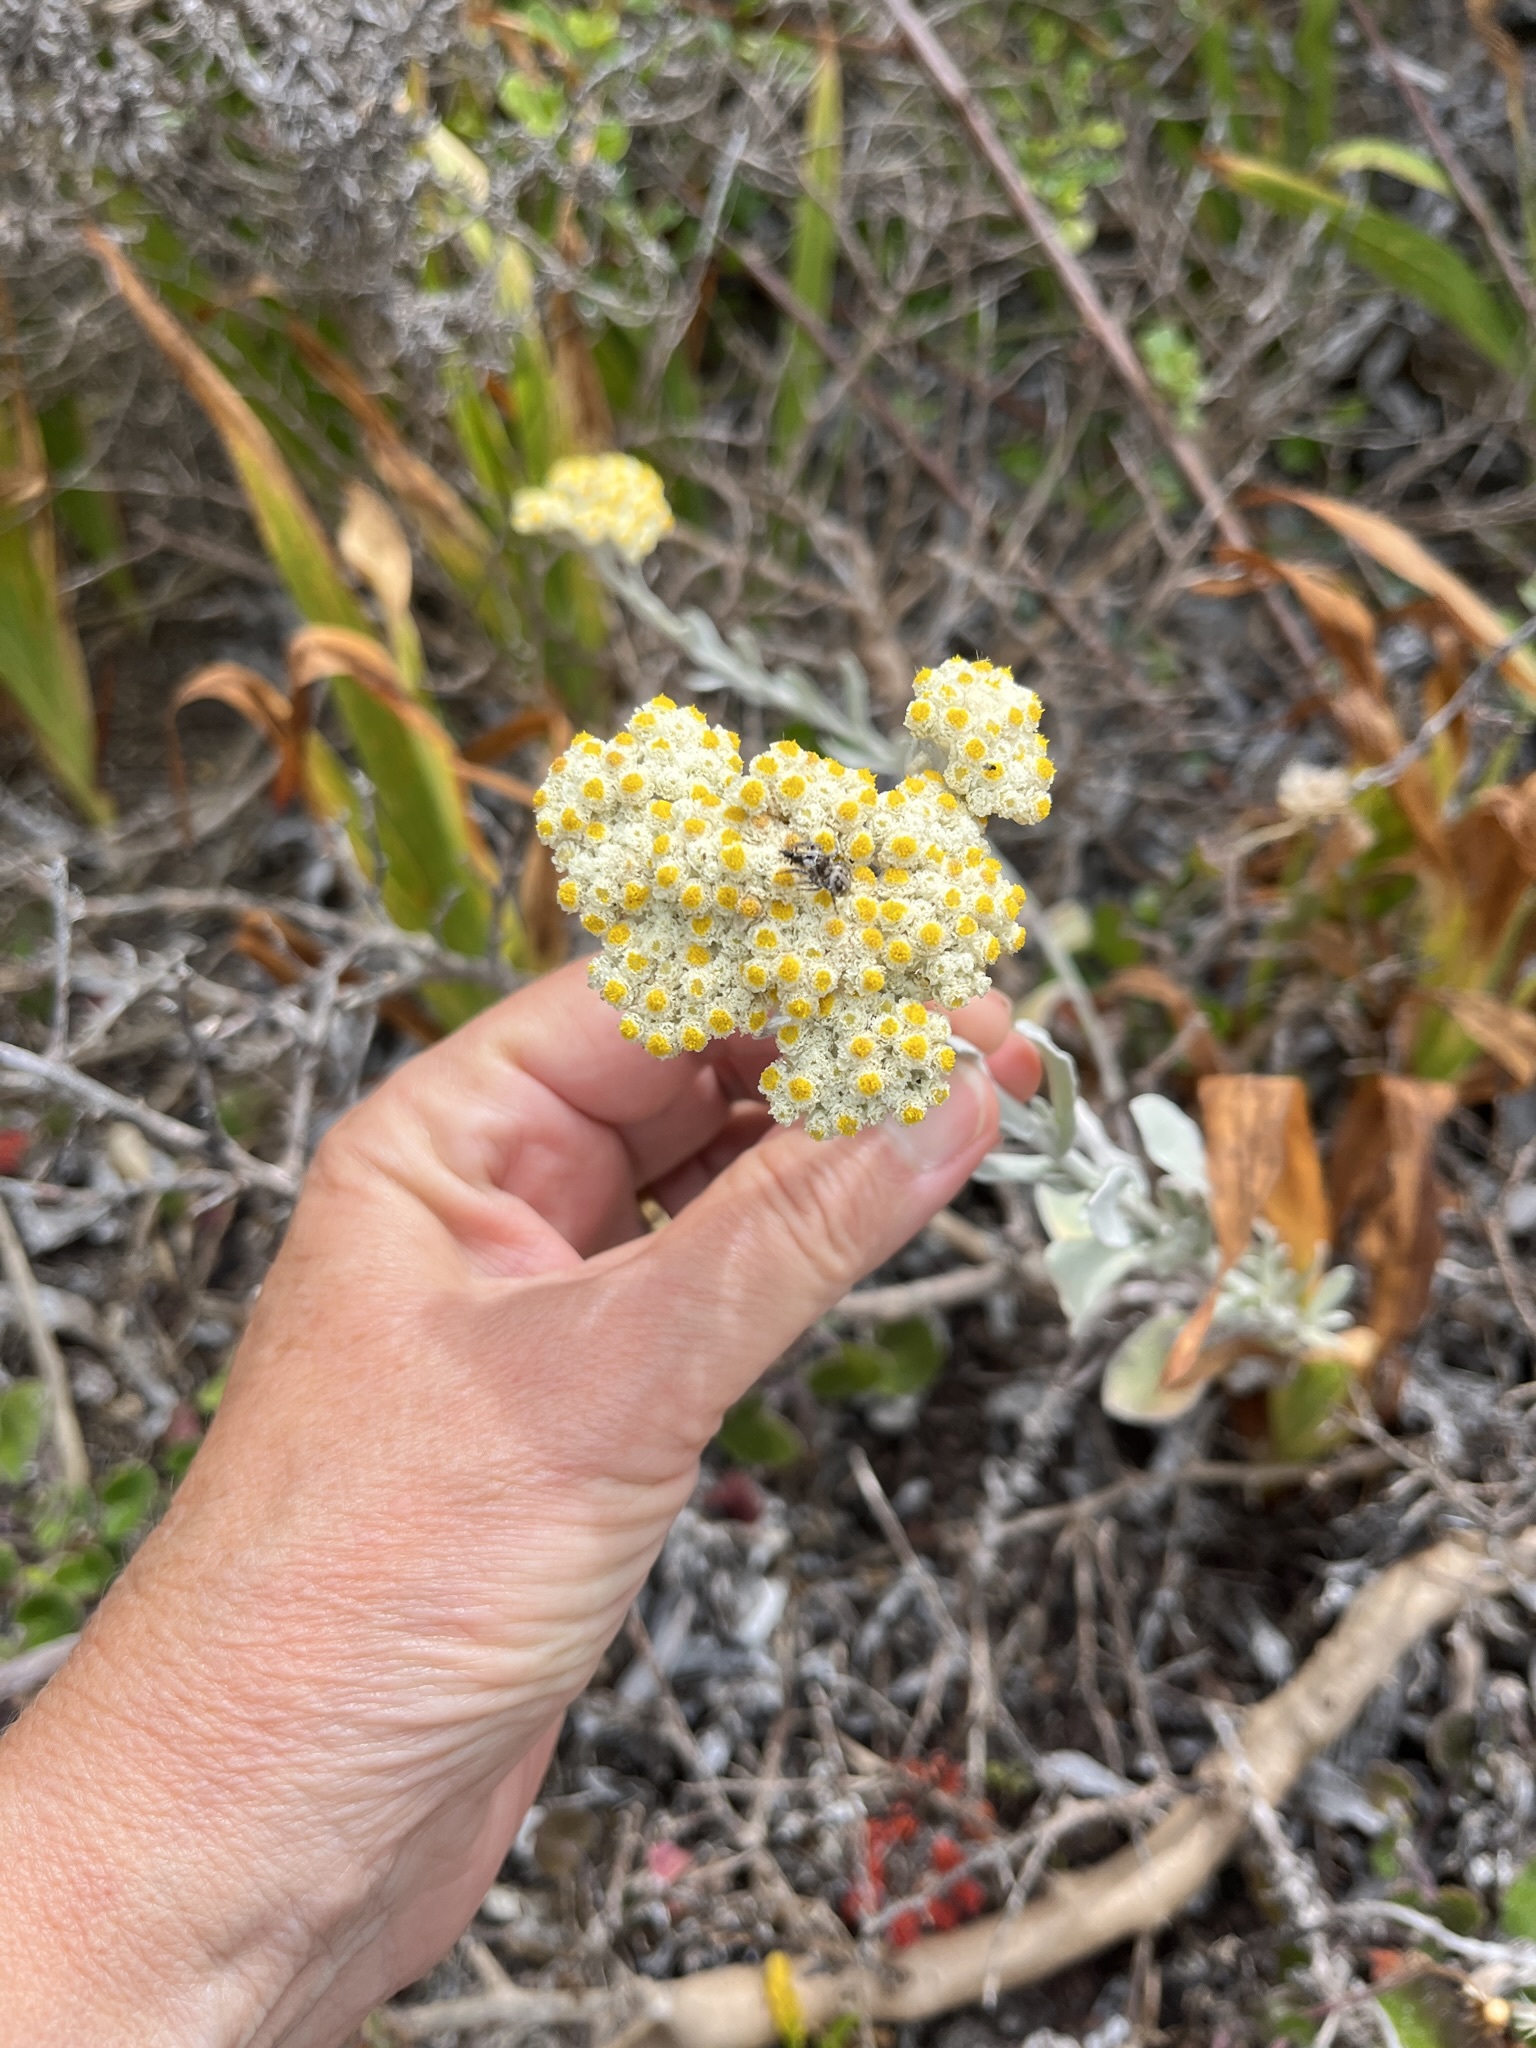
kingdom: Plantae
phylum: Tracheophyta
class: Magnoliopsida
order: Asterales
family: Asteraceae
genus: Helichrysum
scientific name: Helichrysum crispum
